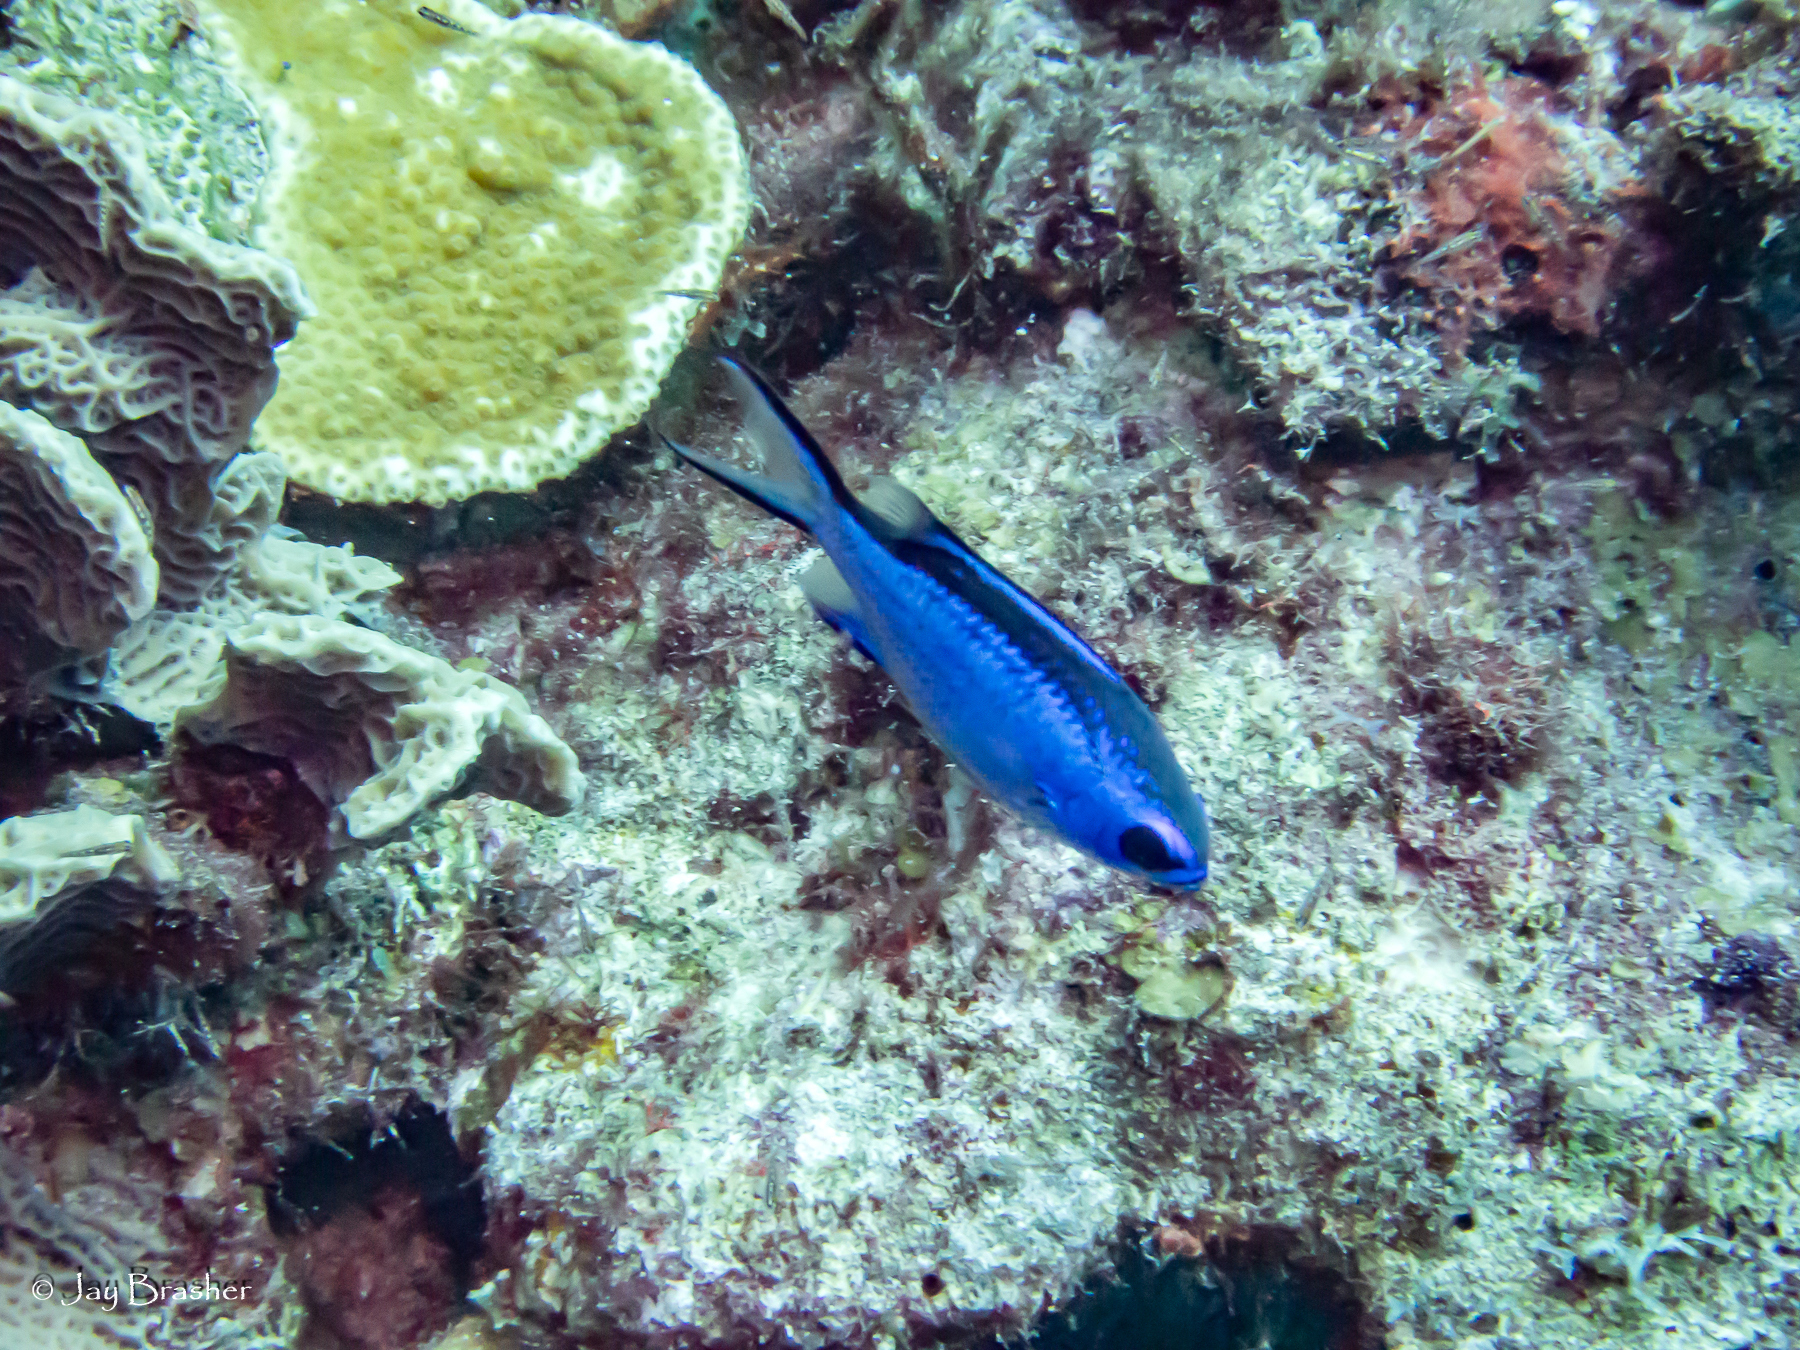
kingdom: Animalia
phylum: Chordata
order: Perciformes
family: Pomacentridae
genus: Chromis
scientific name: Chromis cyanea
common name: Blue chromis
